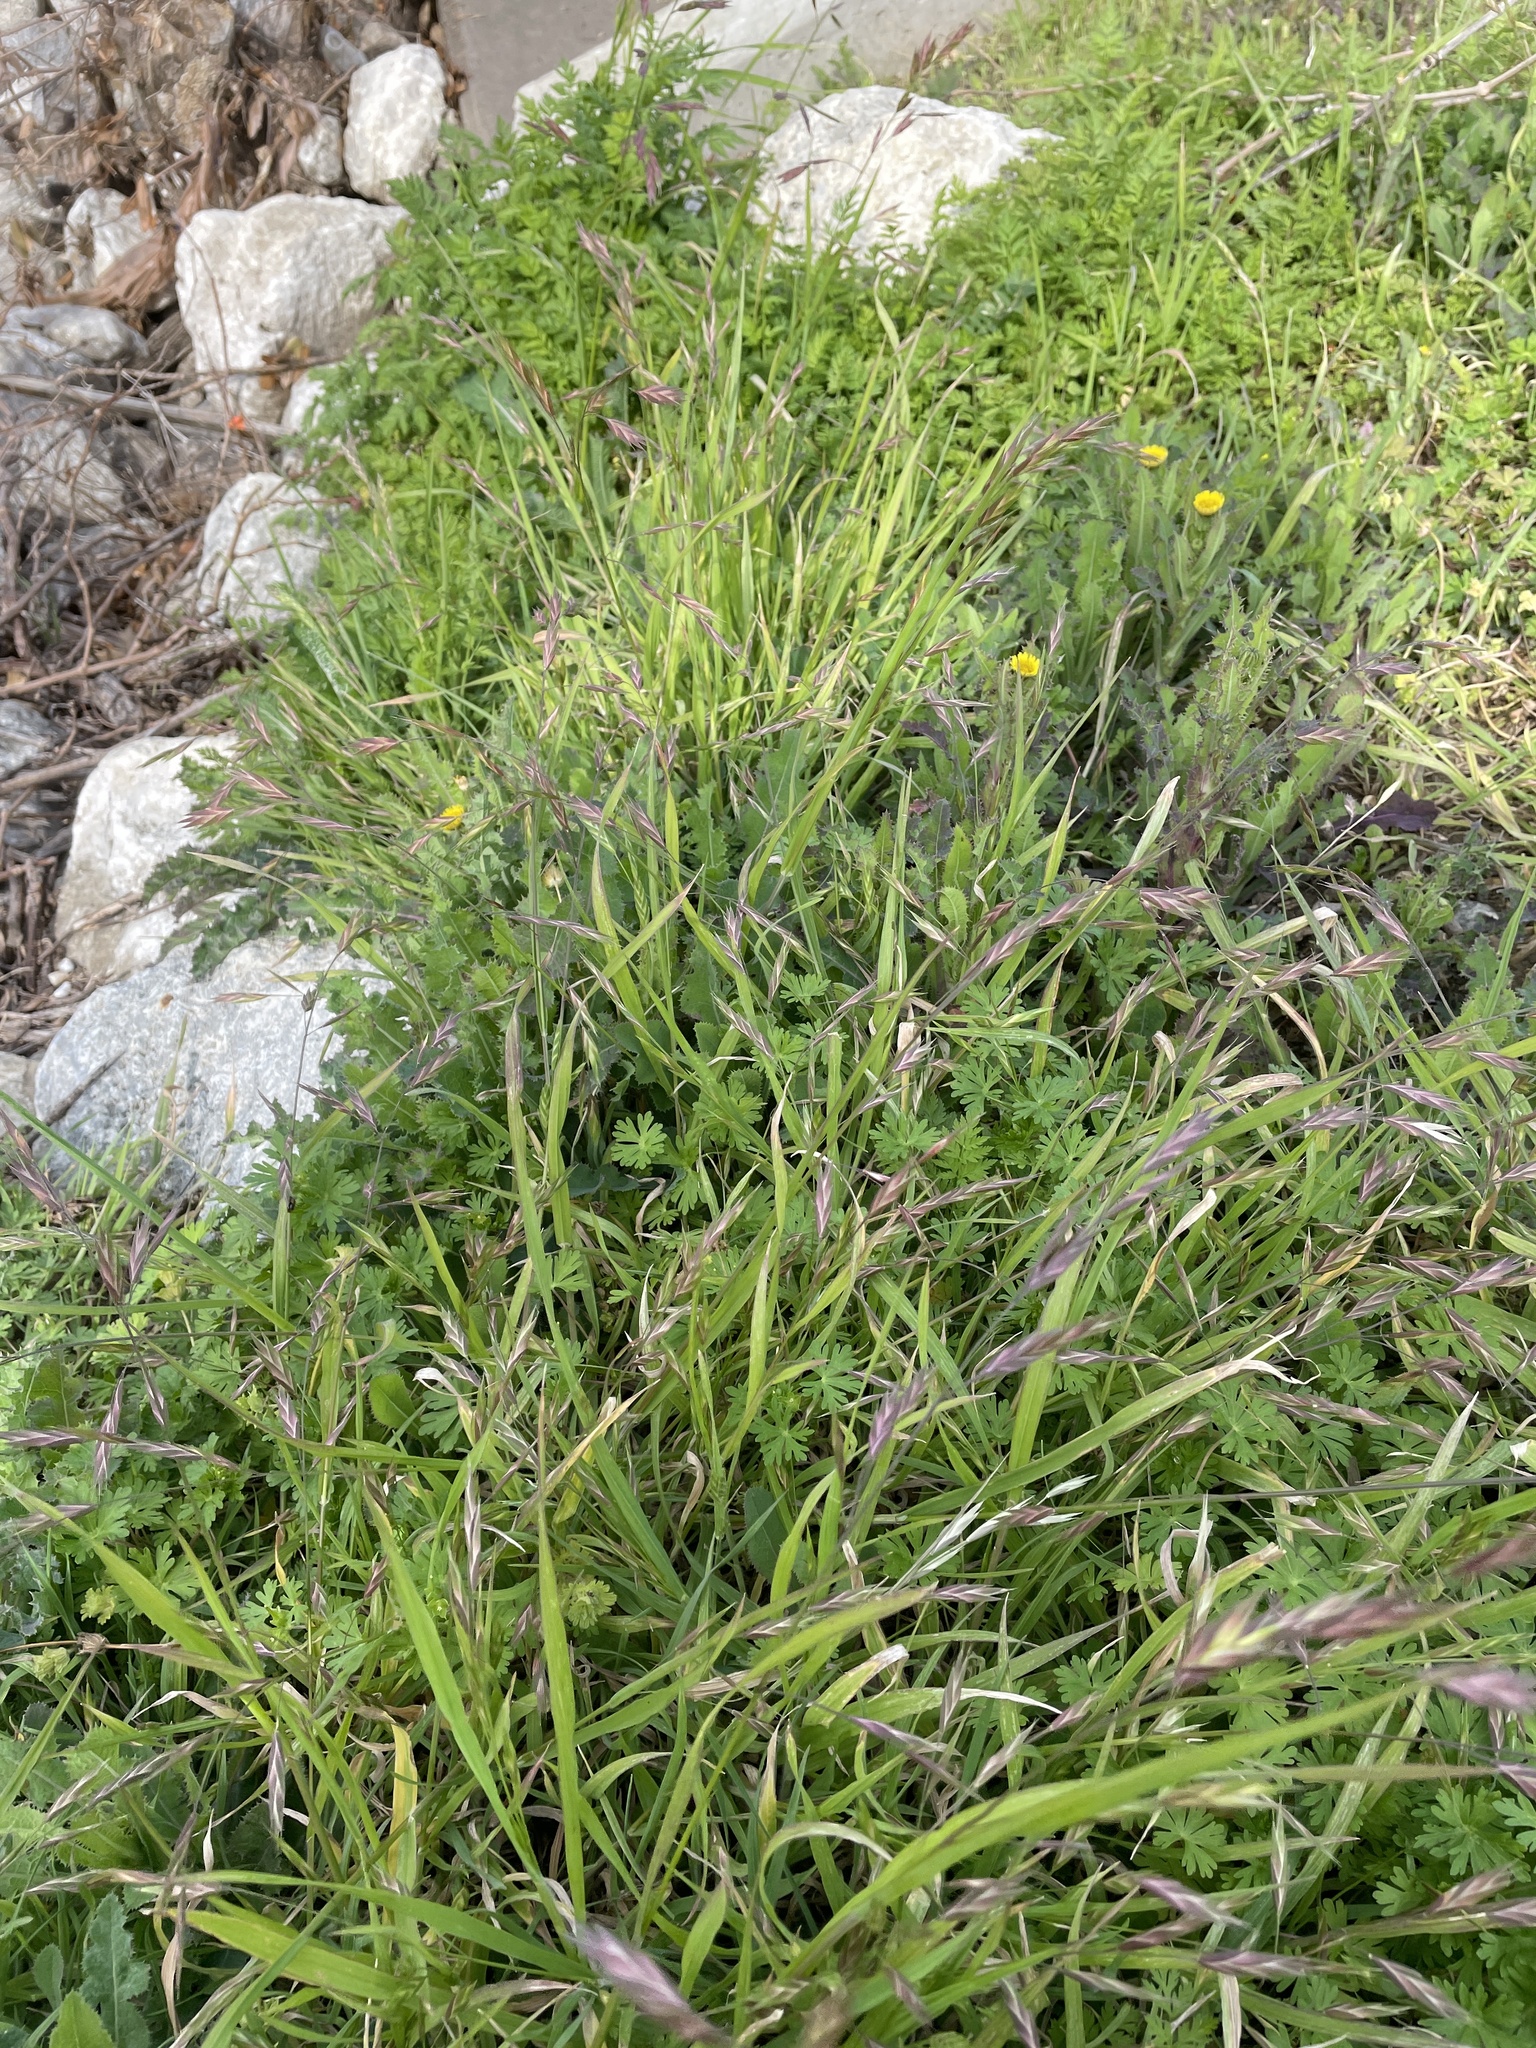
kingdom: Plantae
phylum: Tracheophyta
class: Liliopsida
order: Poales
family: Poaceae
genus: Bromus
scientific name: Bromus catharticus
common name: Rescuegrass
